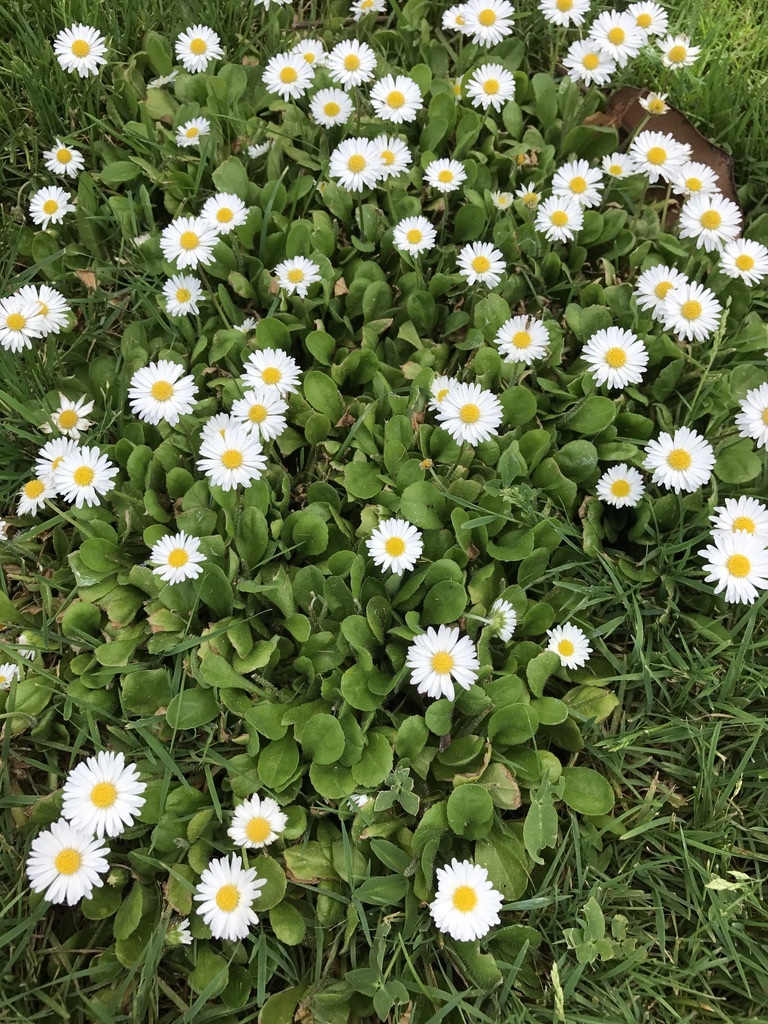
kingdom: Plantae
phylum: Tracheophyta
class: Magnoliopsida
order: Asterales
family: Asteraceae
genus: Bellis
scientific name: Bellis perennis
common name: Lawndaisy
